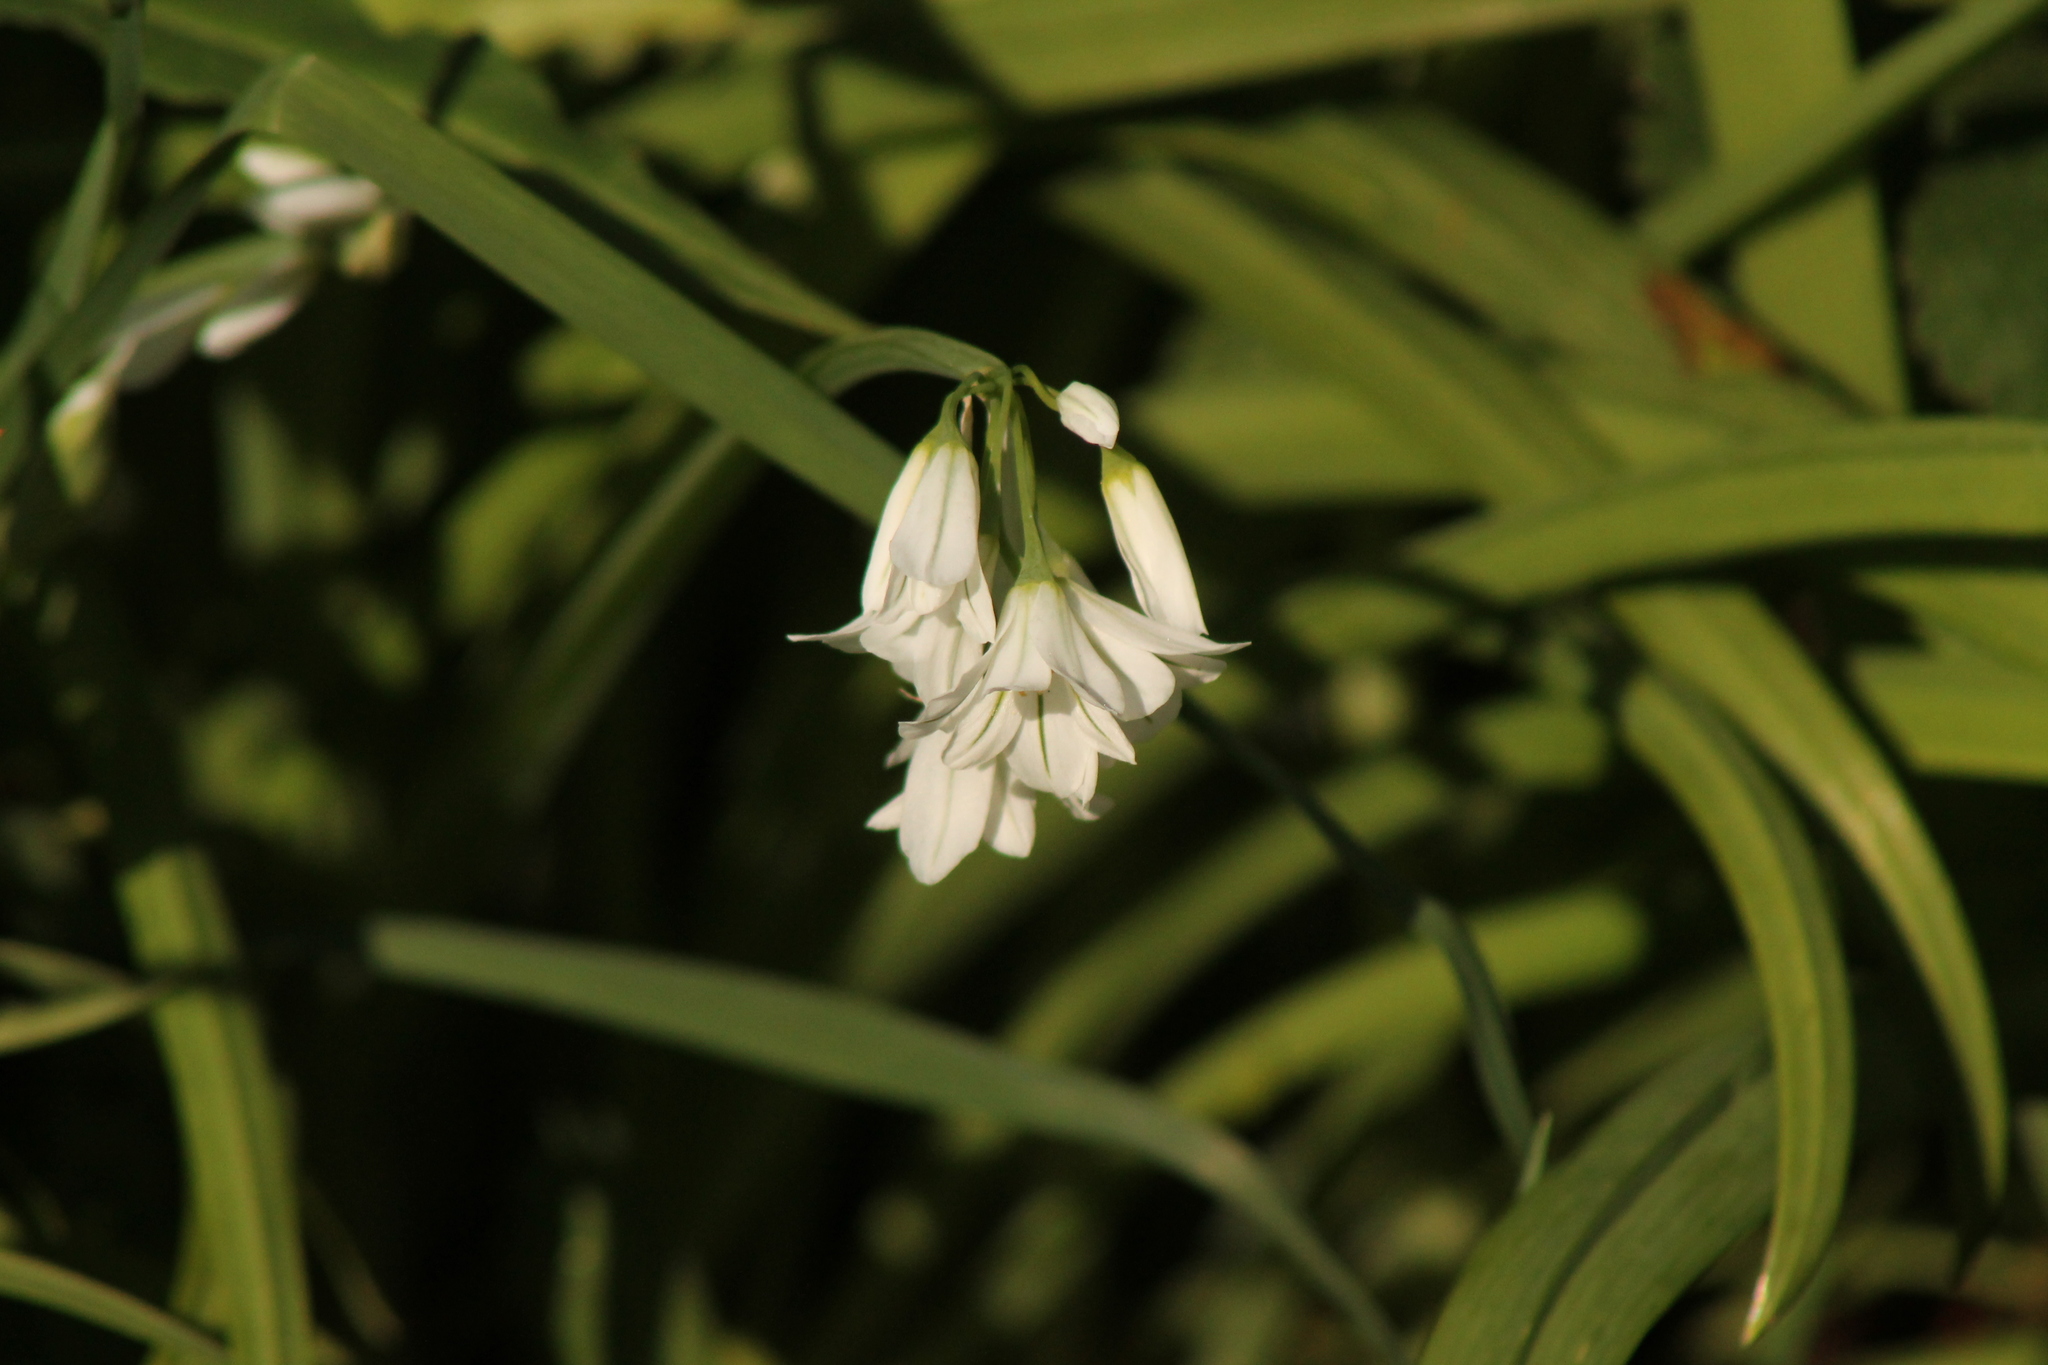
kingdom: Plantae
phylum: Tracheophyta
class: Liliopsida
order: Asparagales
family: Amaryllidaceae
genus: Allium
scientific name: Allium triquetrum
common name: Three-cornered garlic
